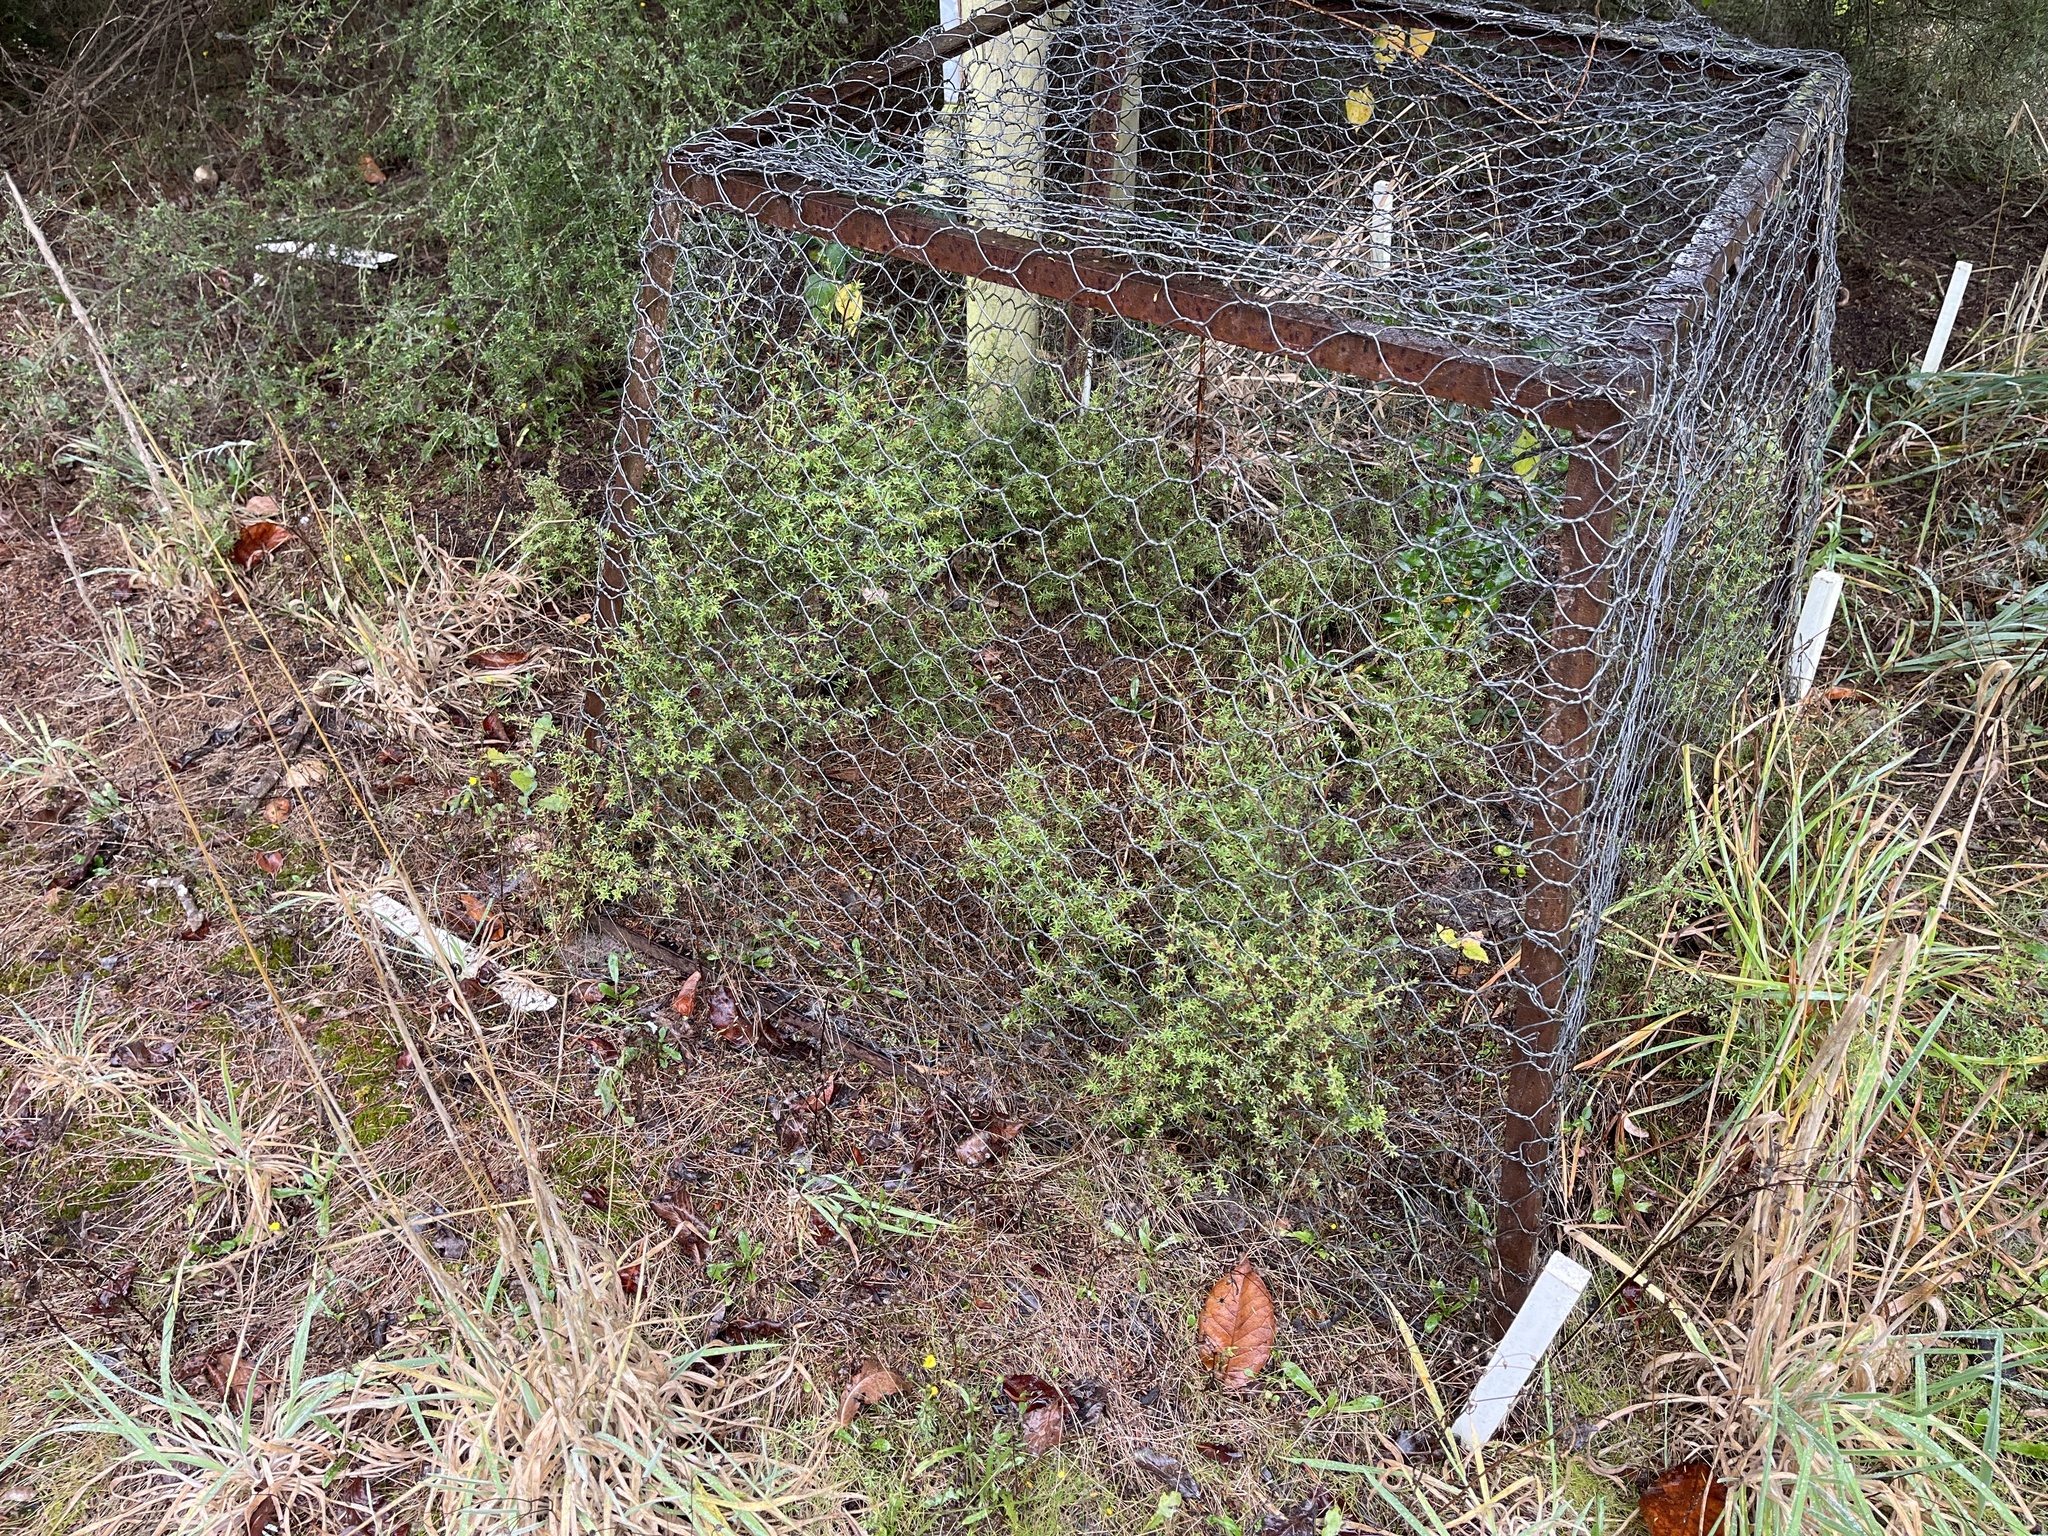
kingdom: Plantae
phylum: Tracheophyta
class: Magnoliopsida
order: Myrtales
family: Myrtaceae
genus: Kunzea
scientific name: Kunzea robusta
